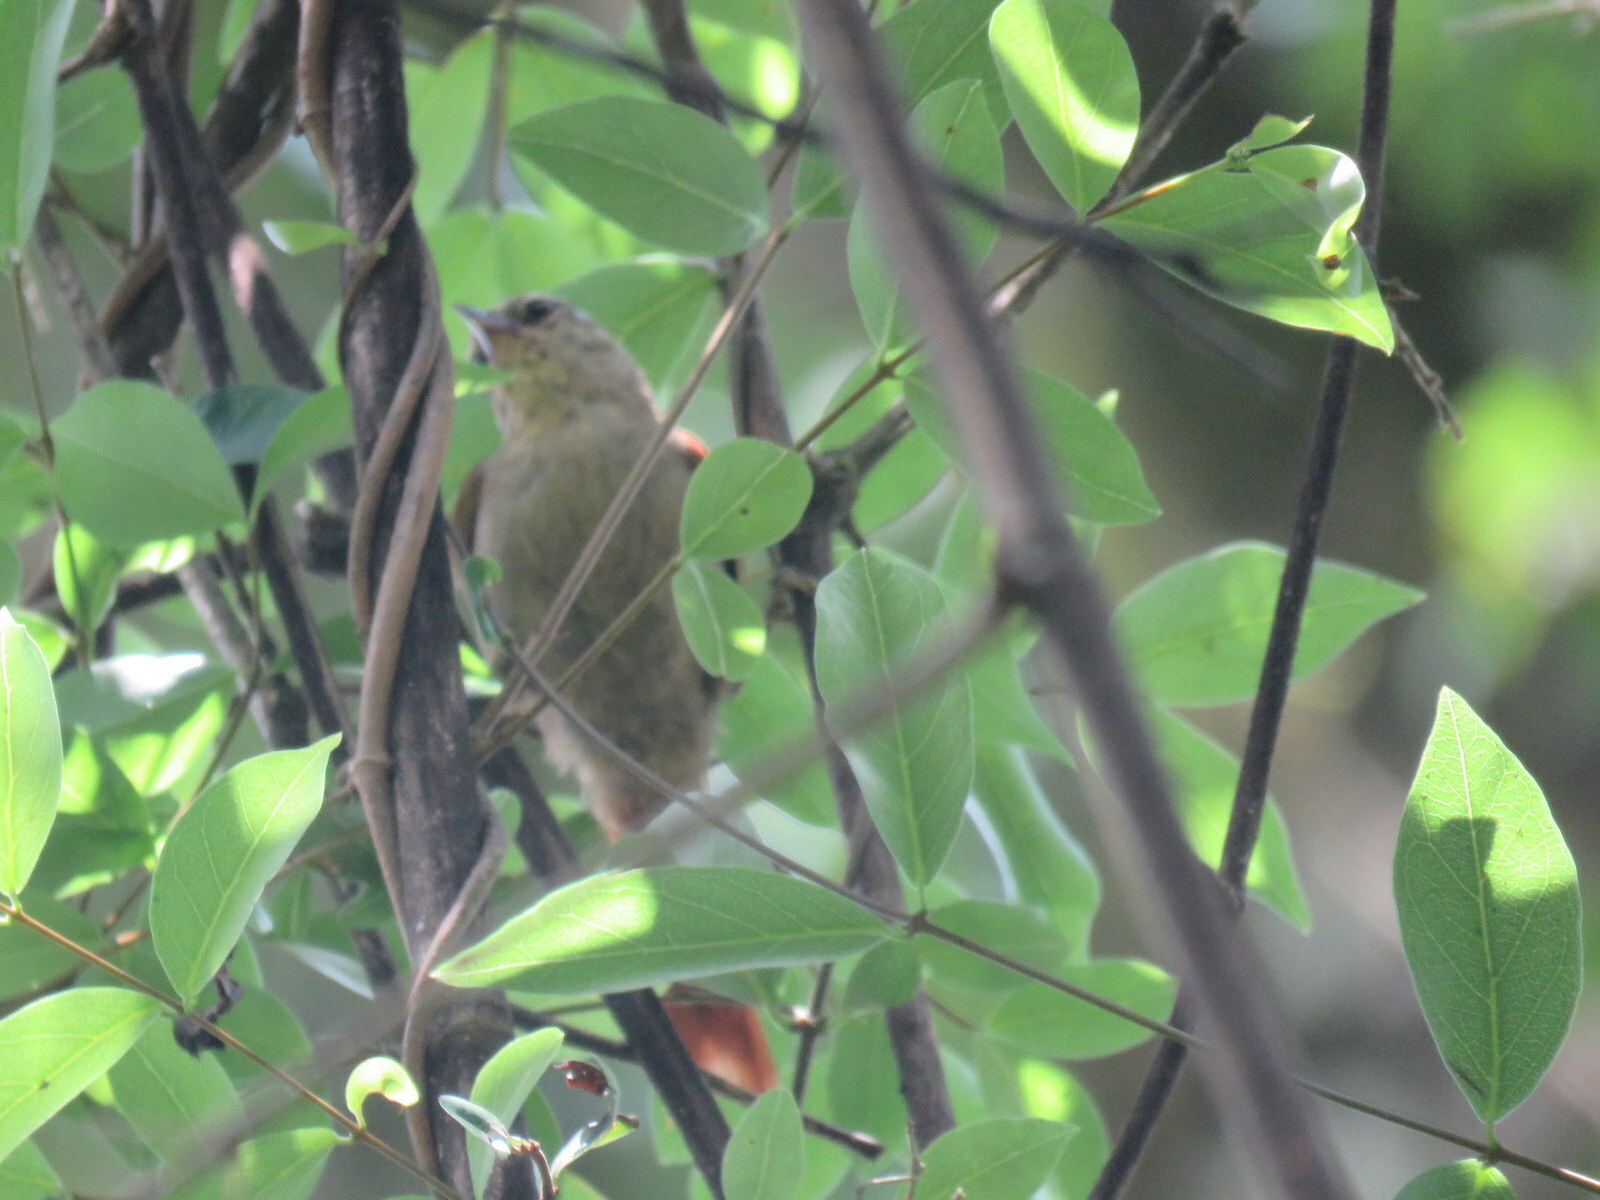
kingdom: Animalia
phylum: Chordata
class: Aves
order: Passeriformes
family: Furnariidae
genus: Cranioleuca
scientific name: Cranioleuca obsoleta
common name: Olive spinetail
